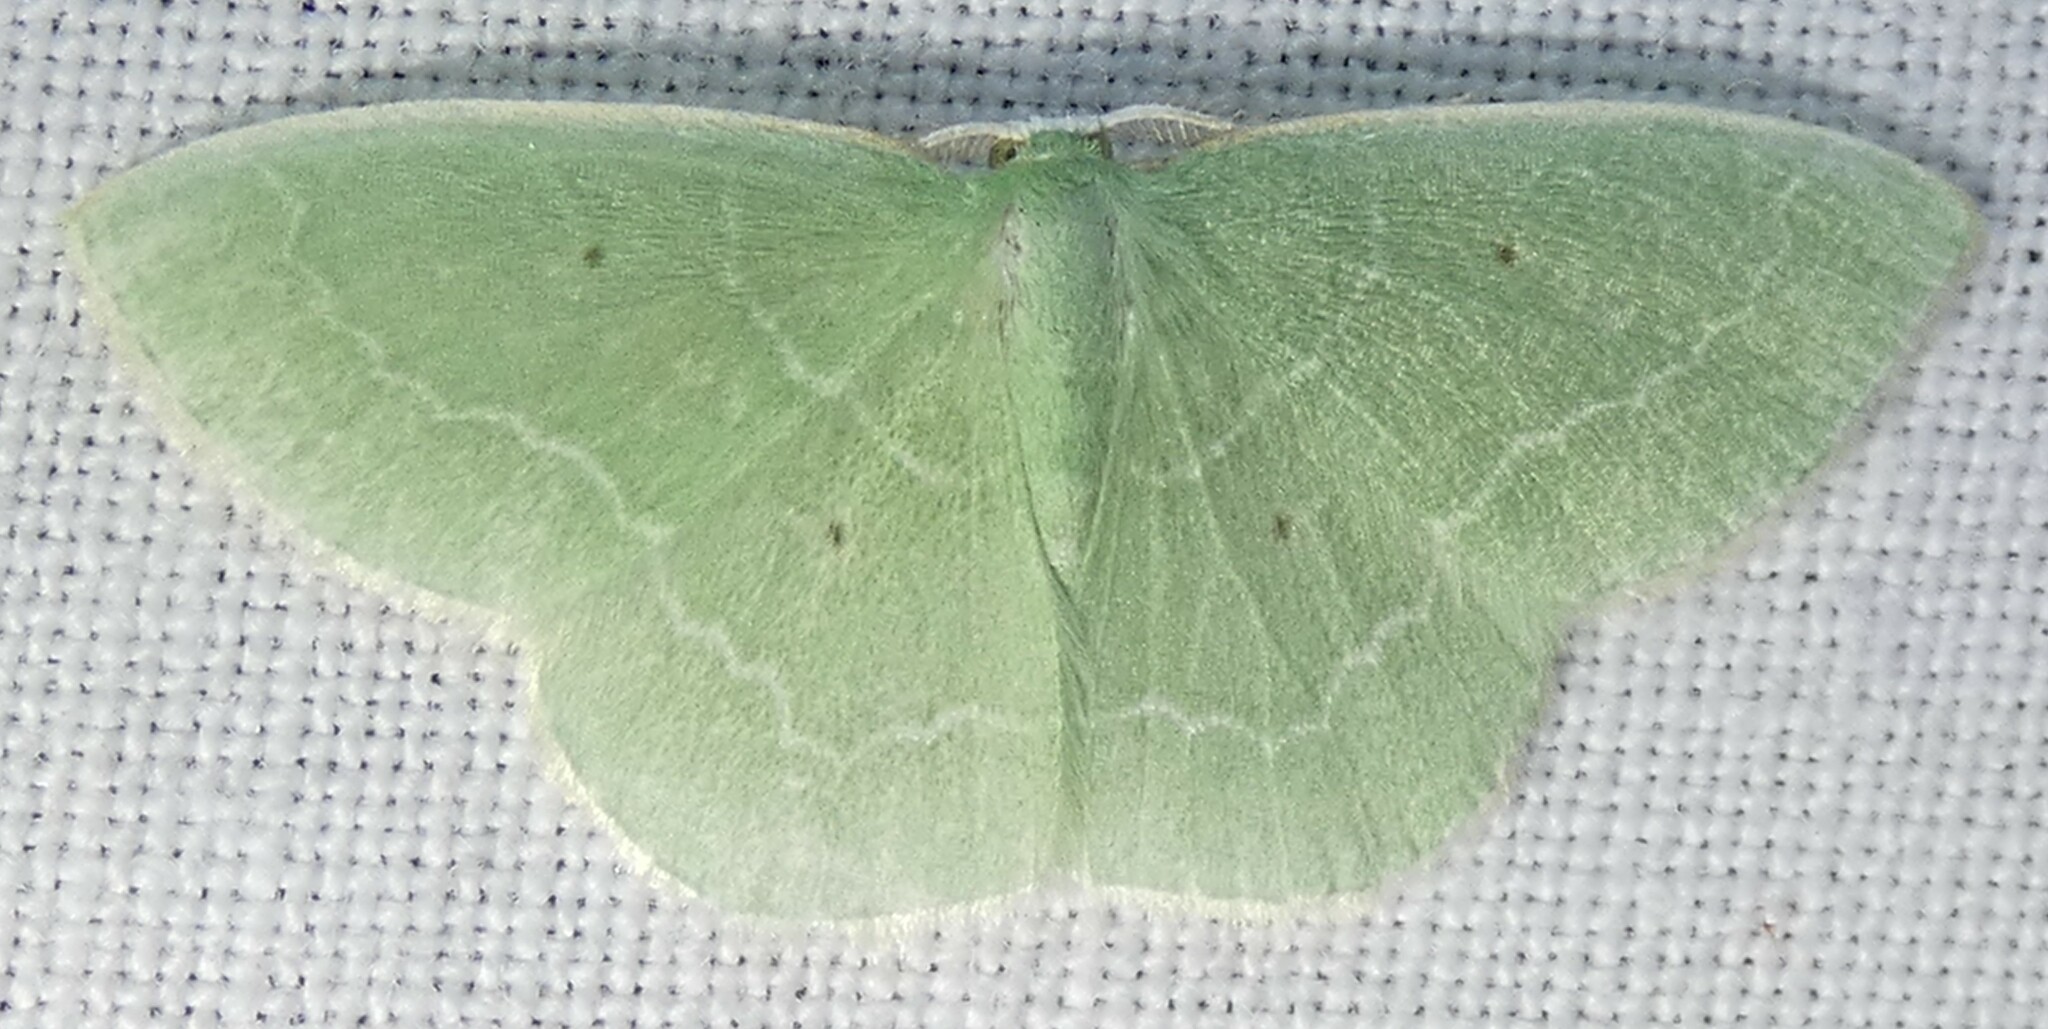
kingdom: Animalia
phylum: Arthropoda
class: Insecta
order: Lepidoptera
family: Geometridae
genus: Nemoria
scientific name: Nemoria elfa
